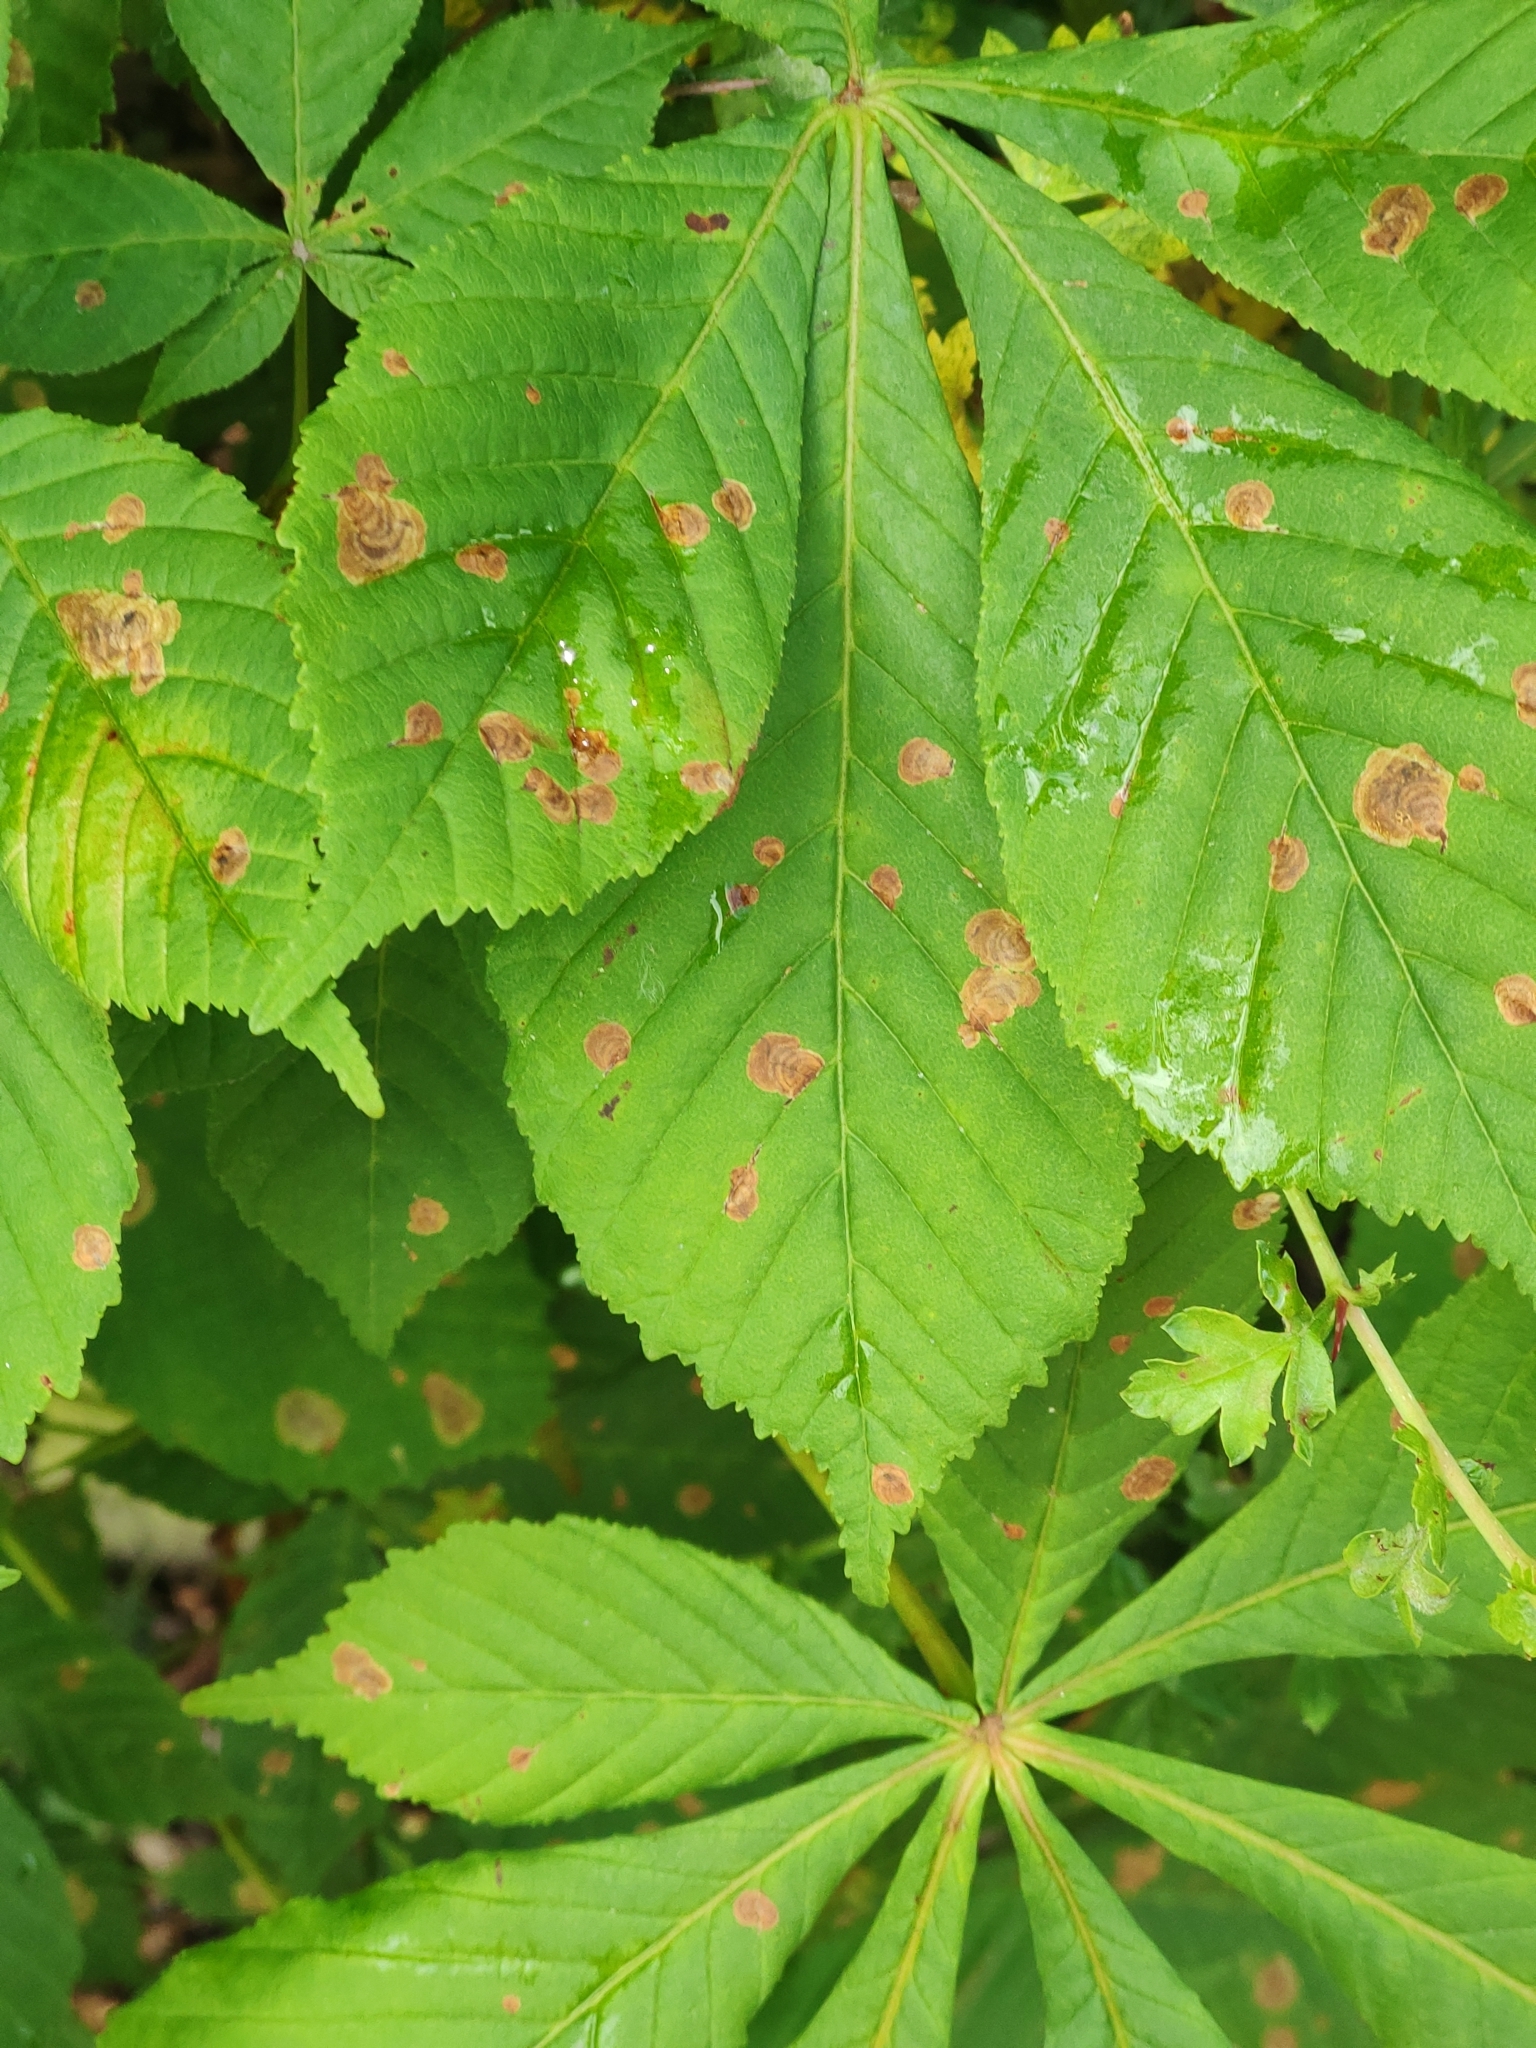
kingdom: Animalia
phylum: Arthropoda
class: Insecta
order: Lepidoptera
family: Gracillariidae
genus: Cameraria
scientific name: Cameraria ohridella
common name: Horse-chestnut leaf-miner
